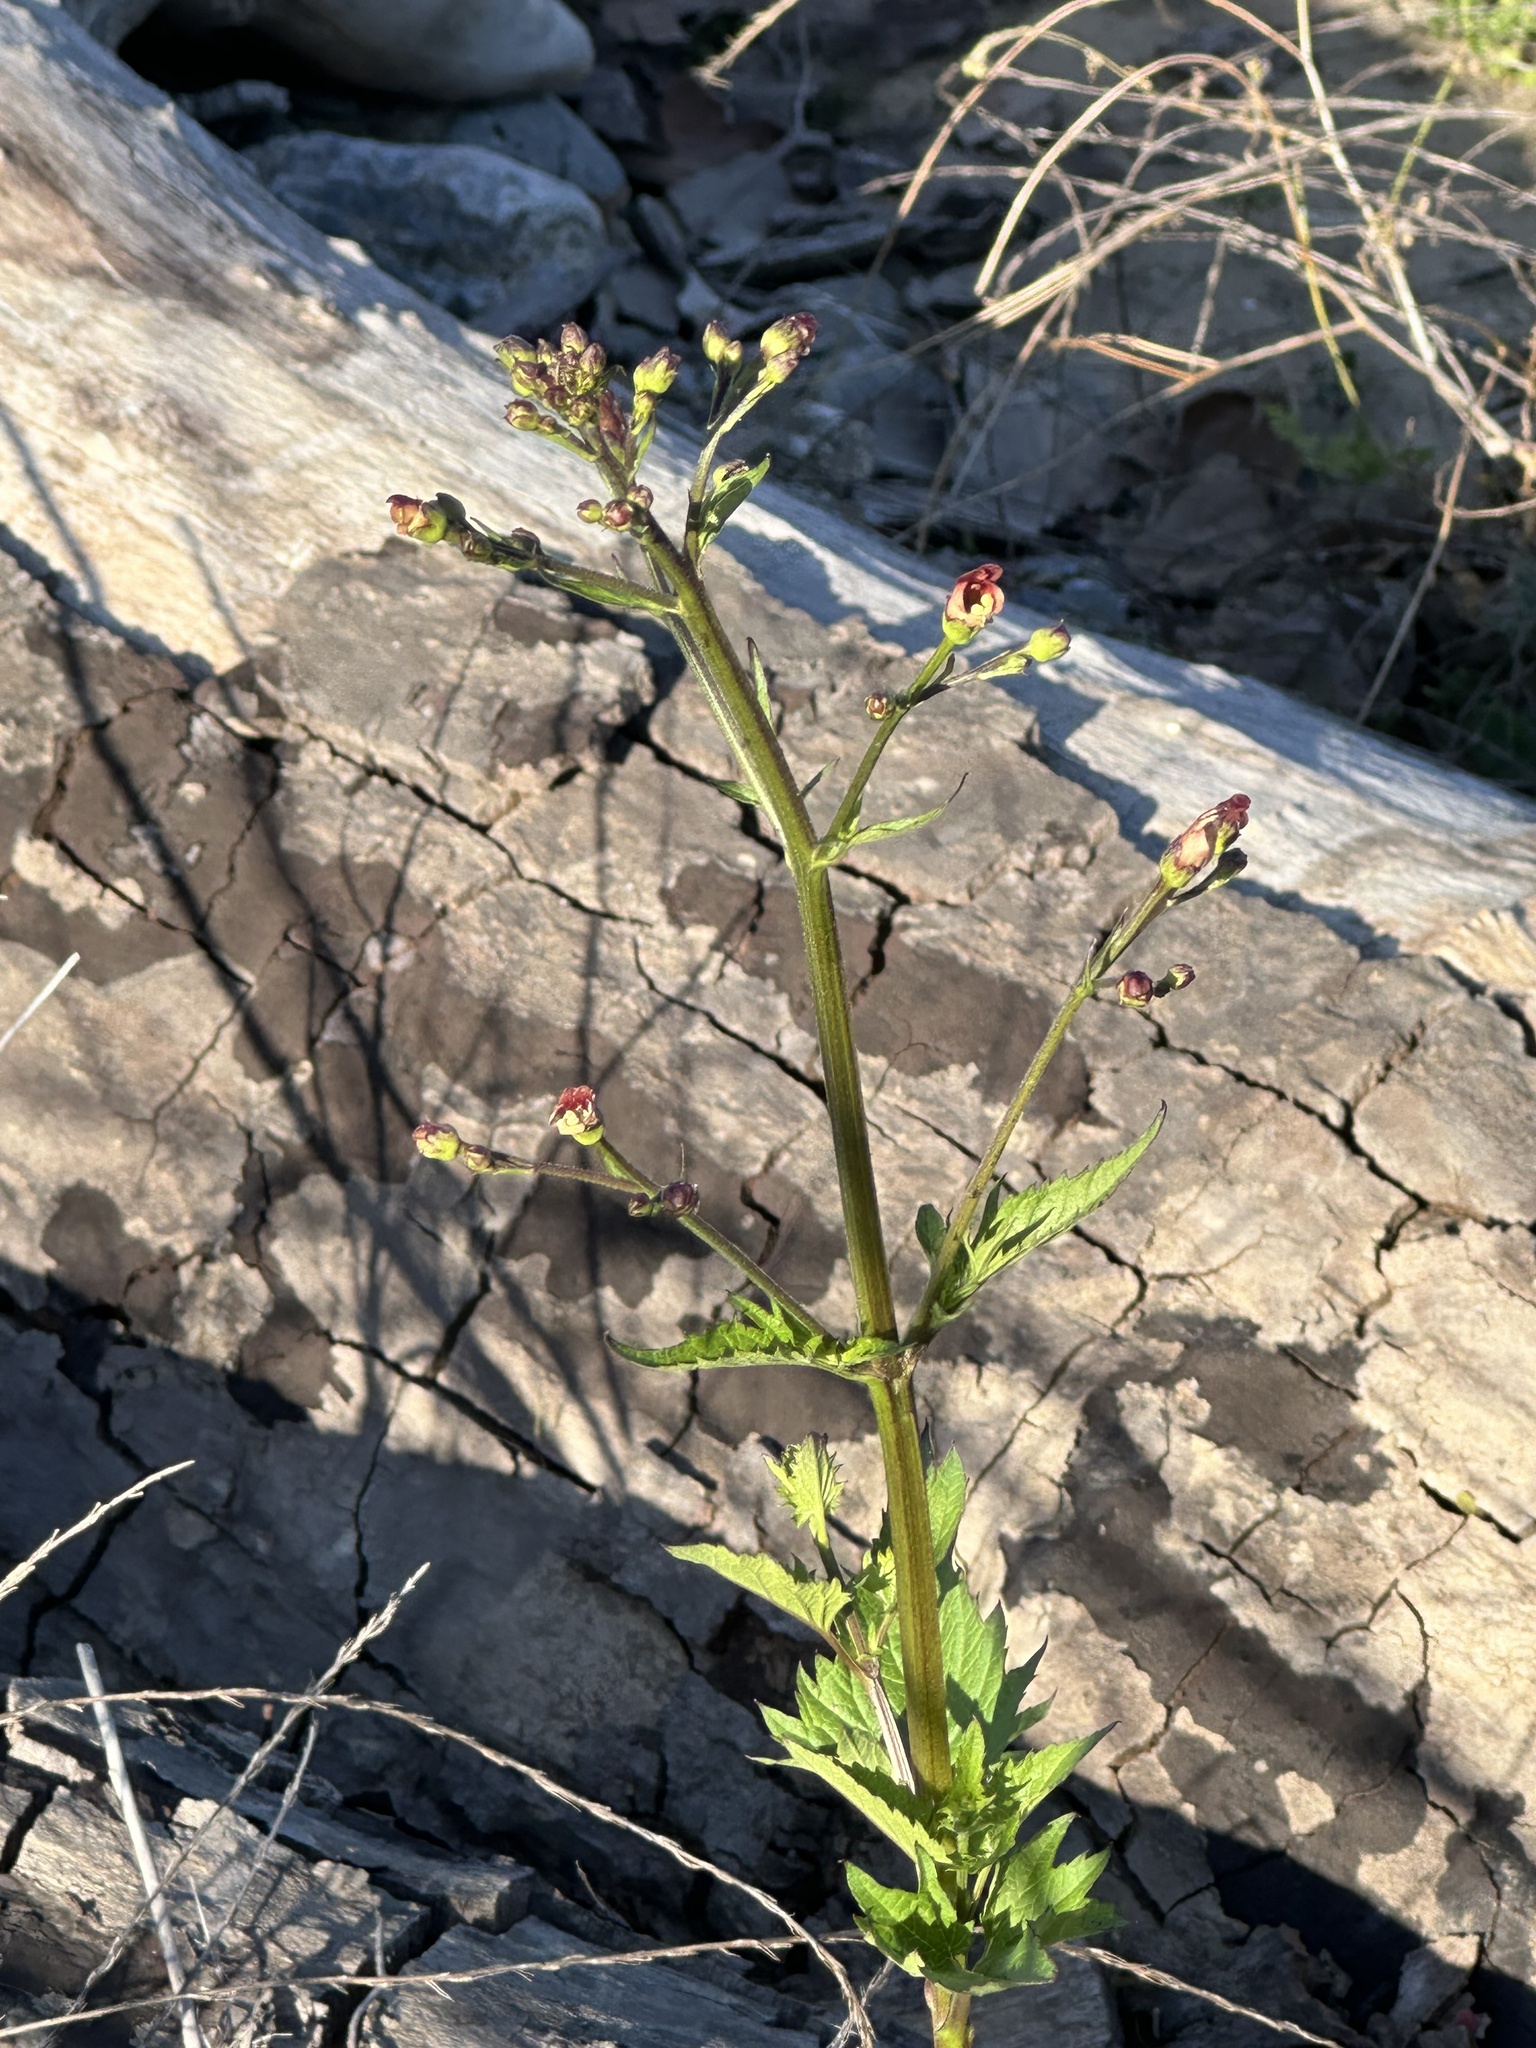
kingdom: Plantae
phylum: Tracheophyta
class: Magnoliopsida
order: Lamiales
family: Scrophulariaceae
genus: Scrophularia
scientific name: Scrophularia californica
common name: California figwort
